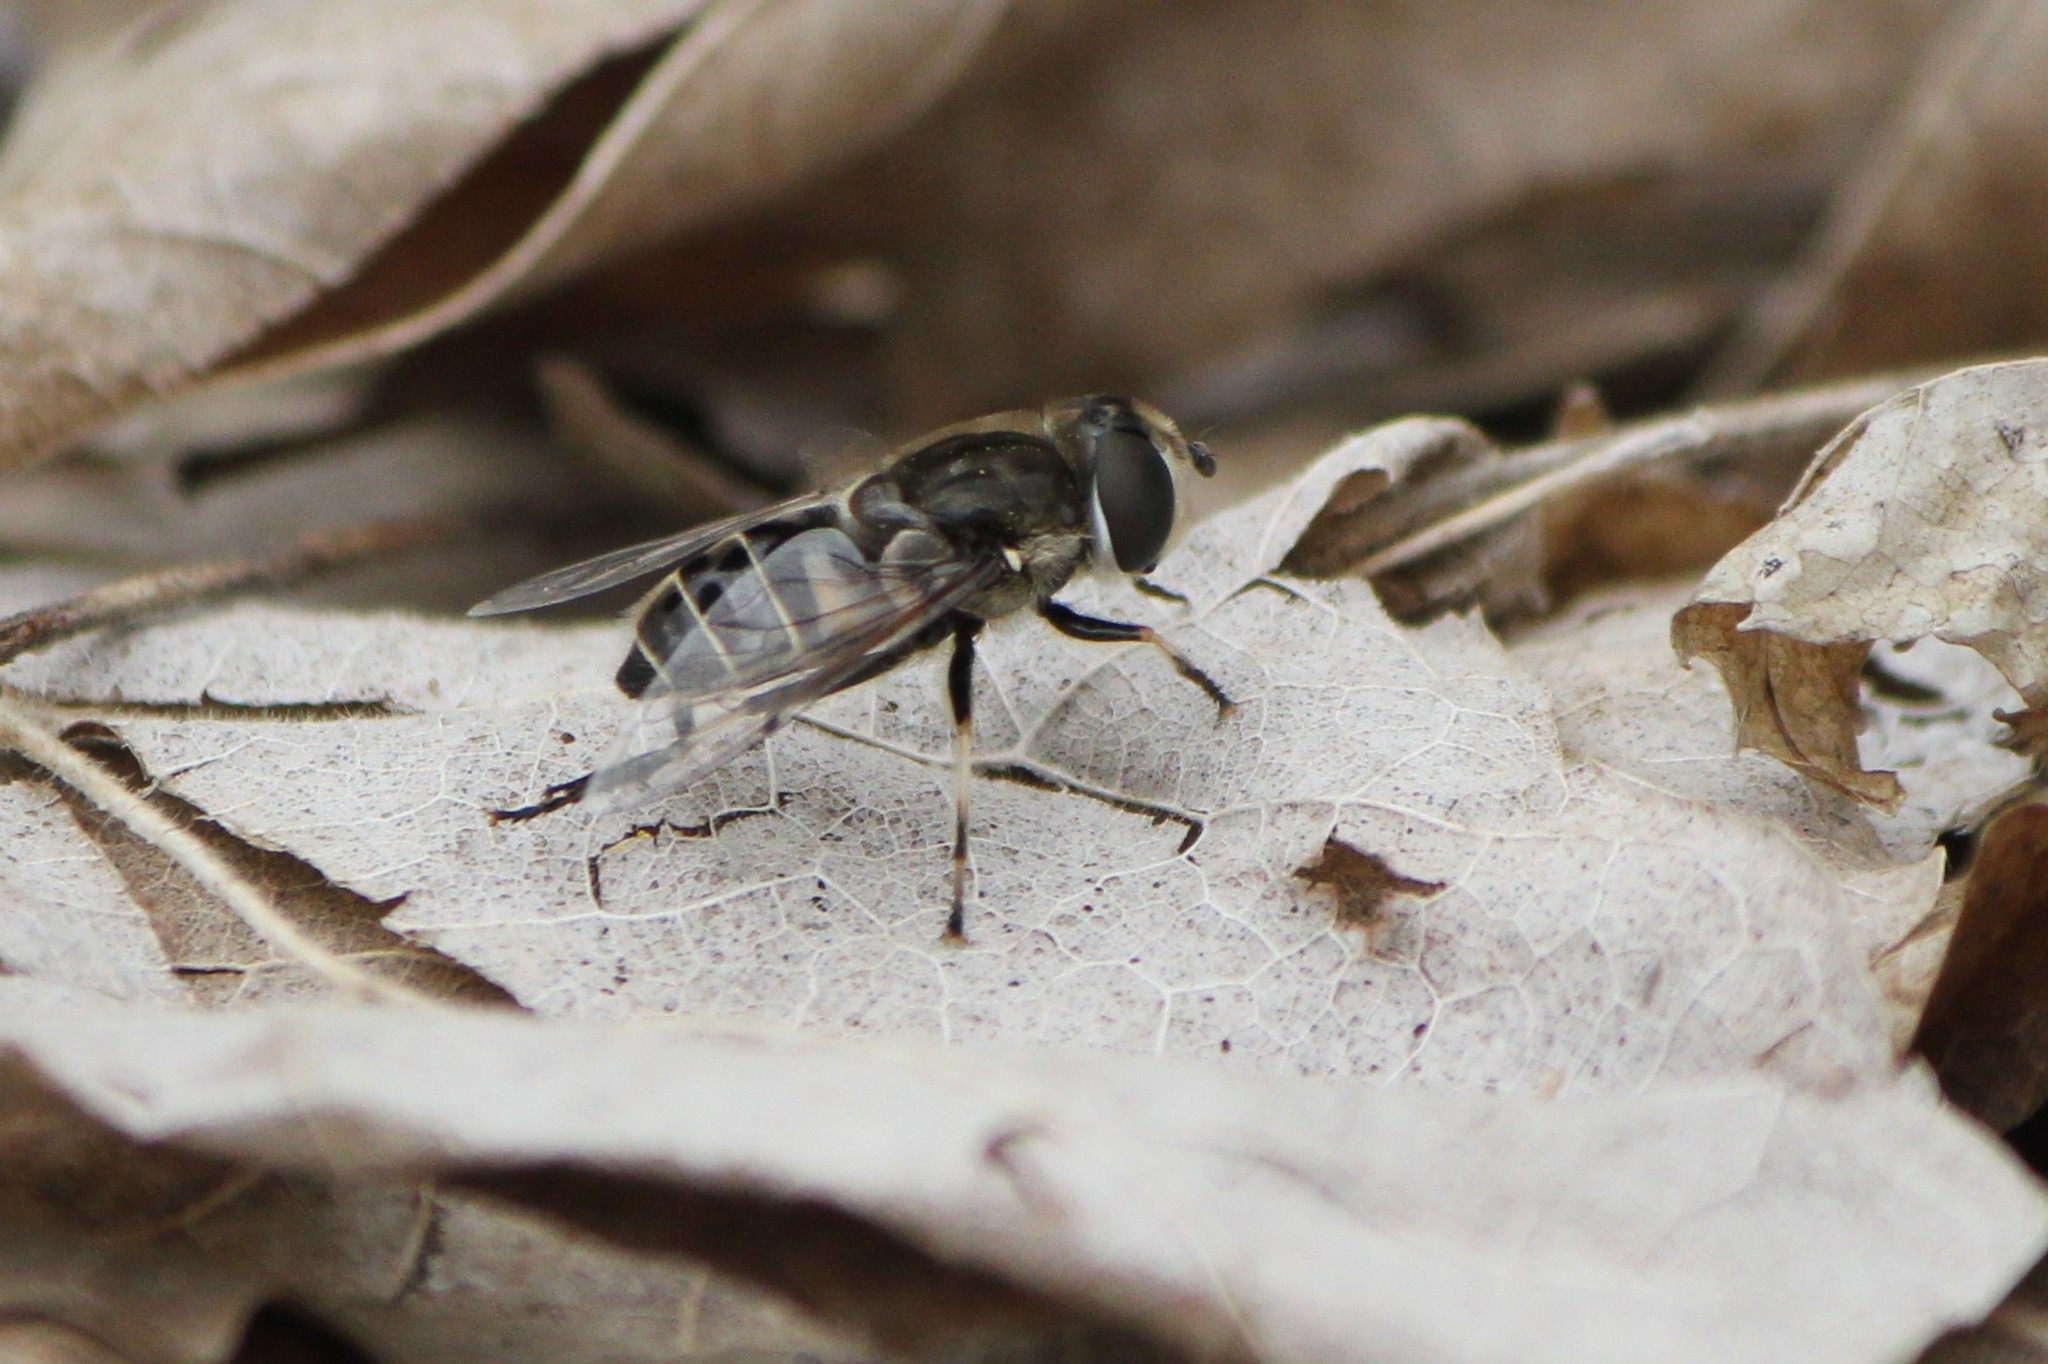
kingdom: Animalia
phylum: Arthropoda
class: Insecta
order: Diptera
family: Syrphidae
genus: Eristalis
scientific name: Eristalis dimidiata
